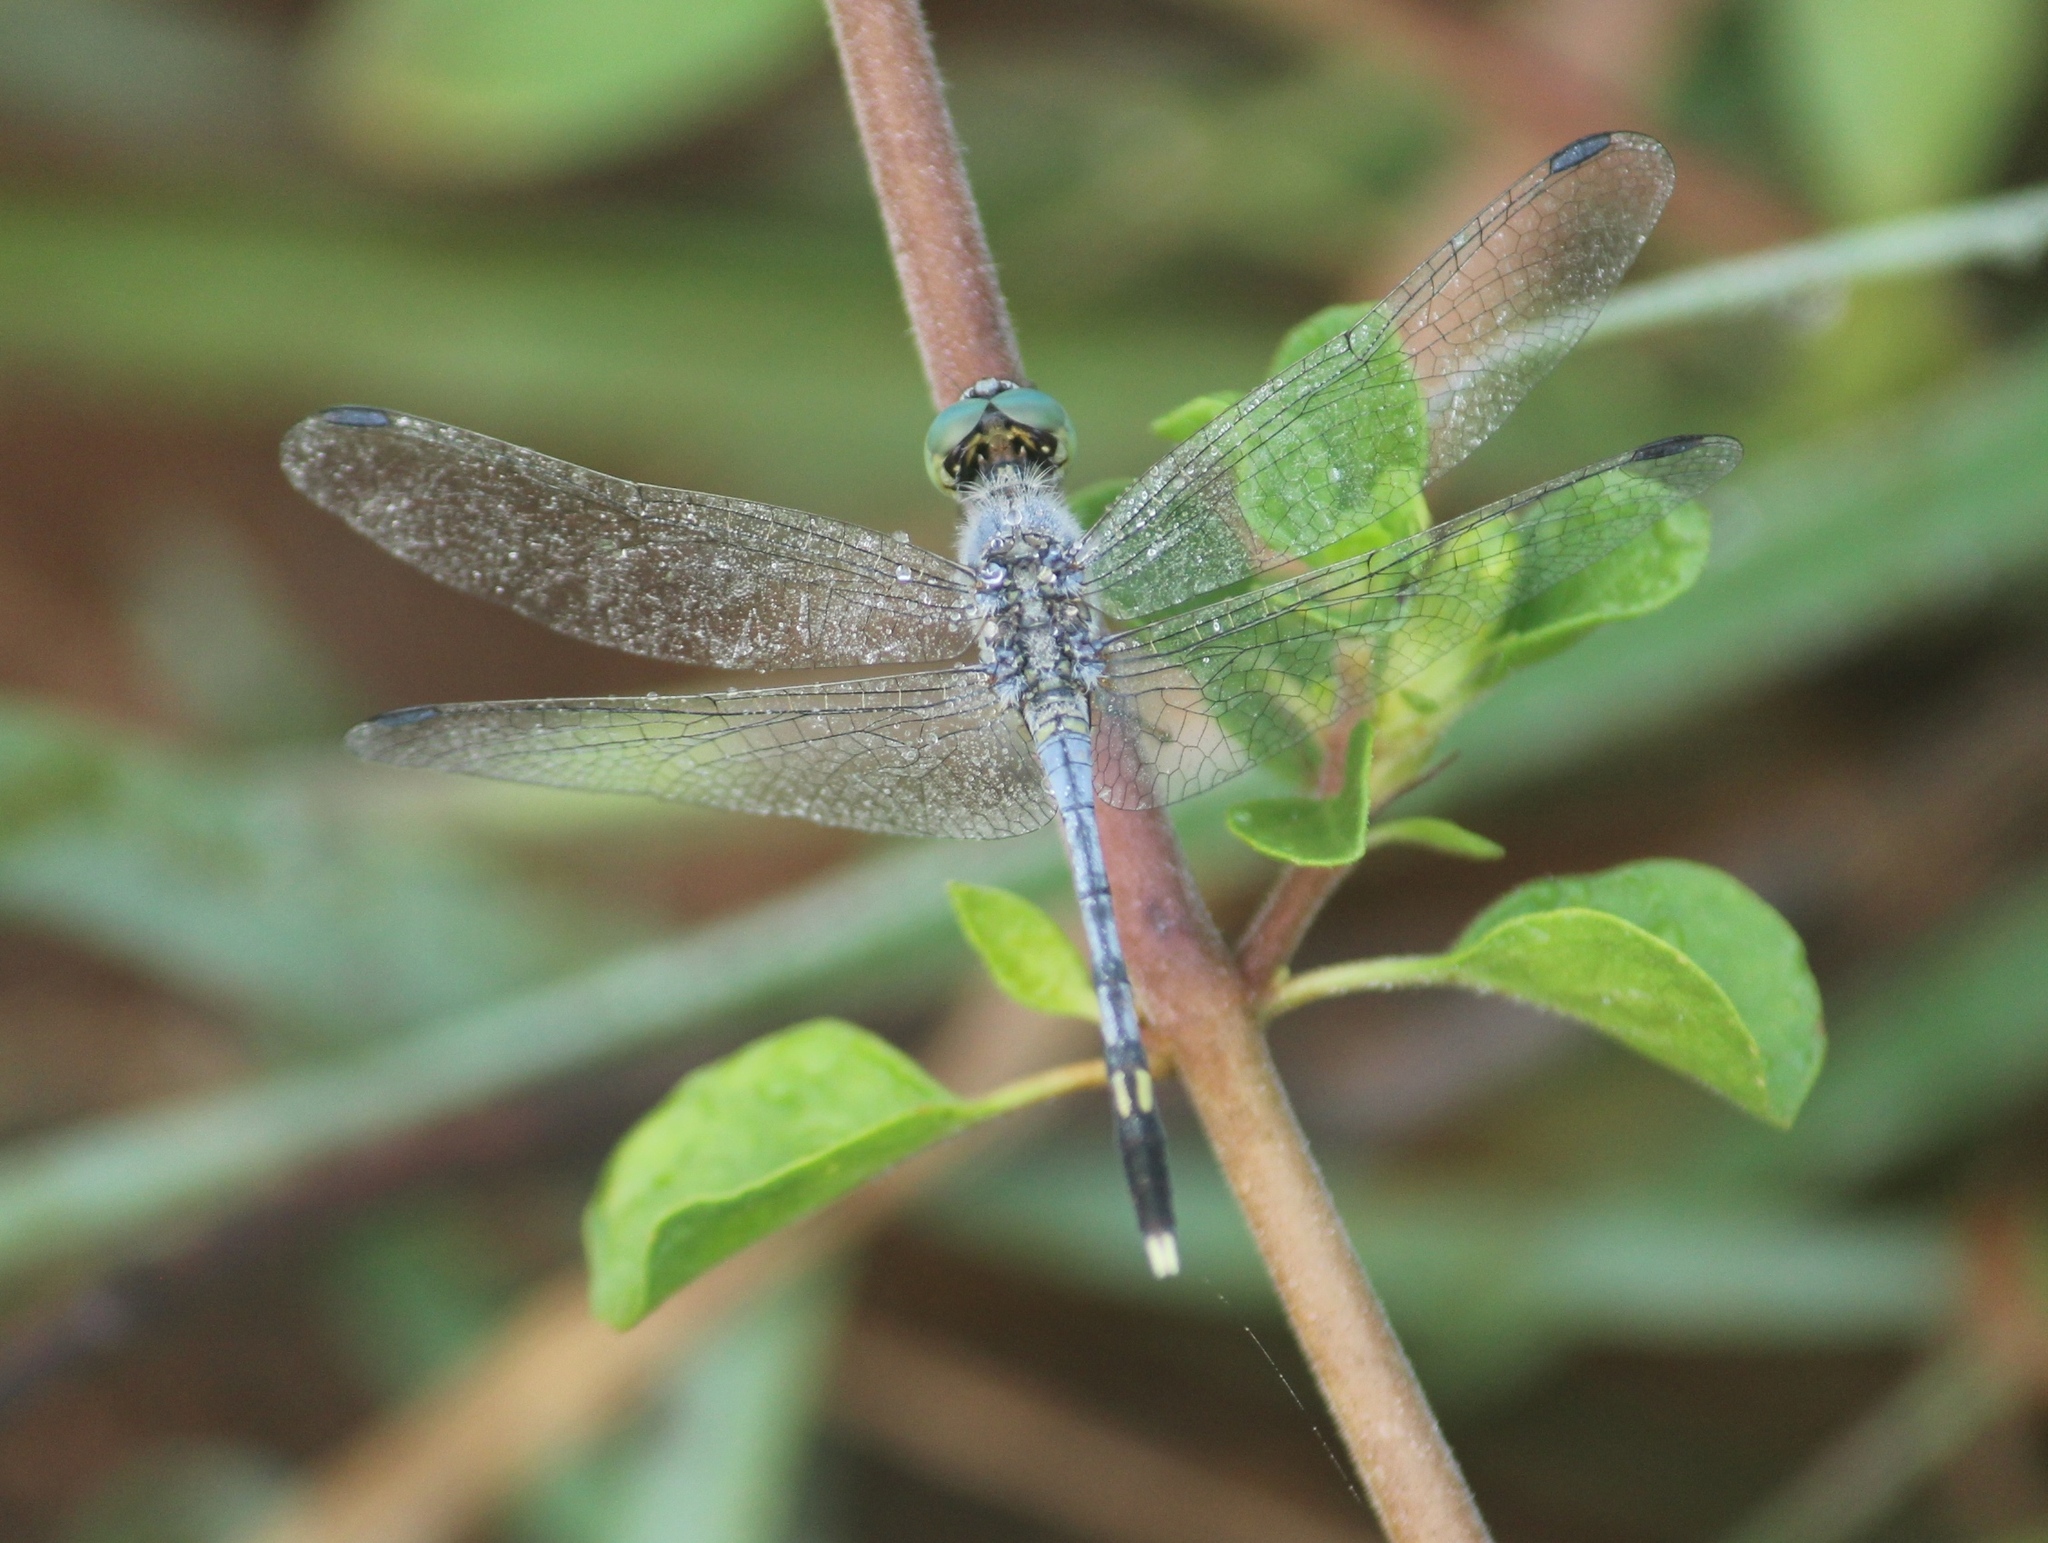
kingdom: Animalia
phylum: Arthropoda
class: Insecta
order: Odonata
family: Libellulidae
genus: Diplacodes
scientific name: Diplacodes trivialis
